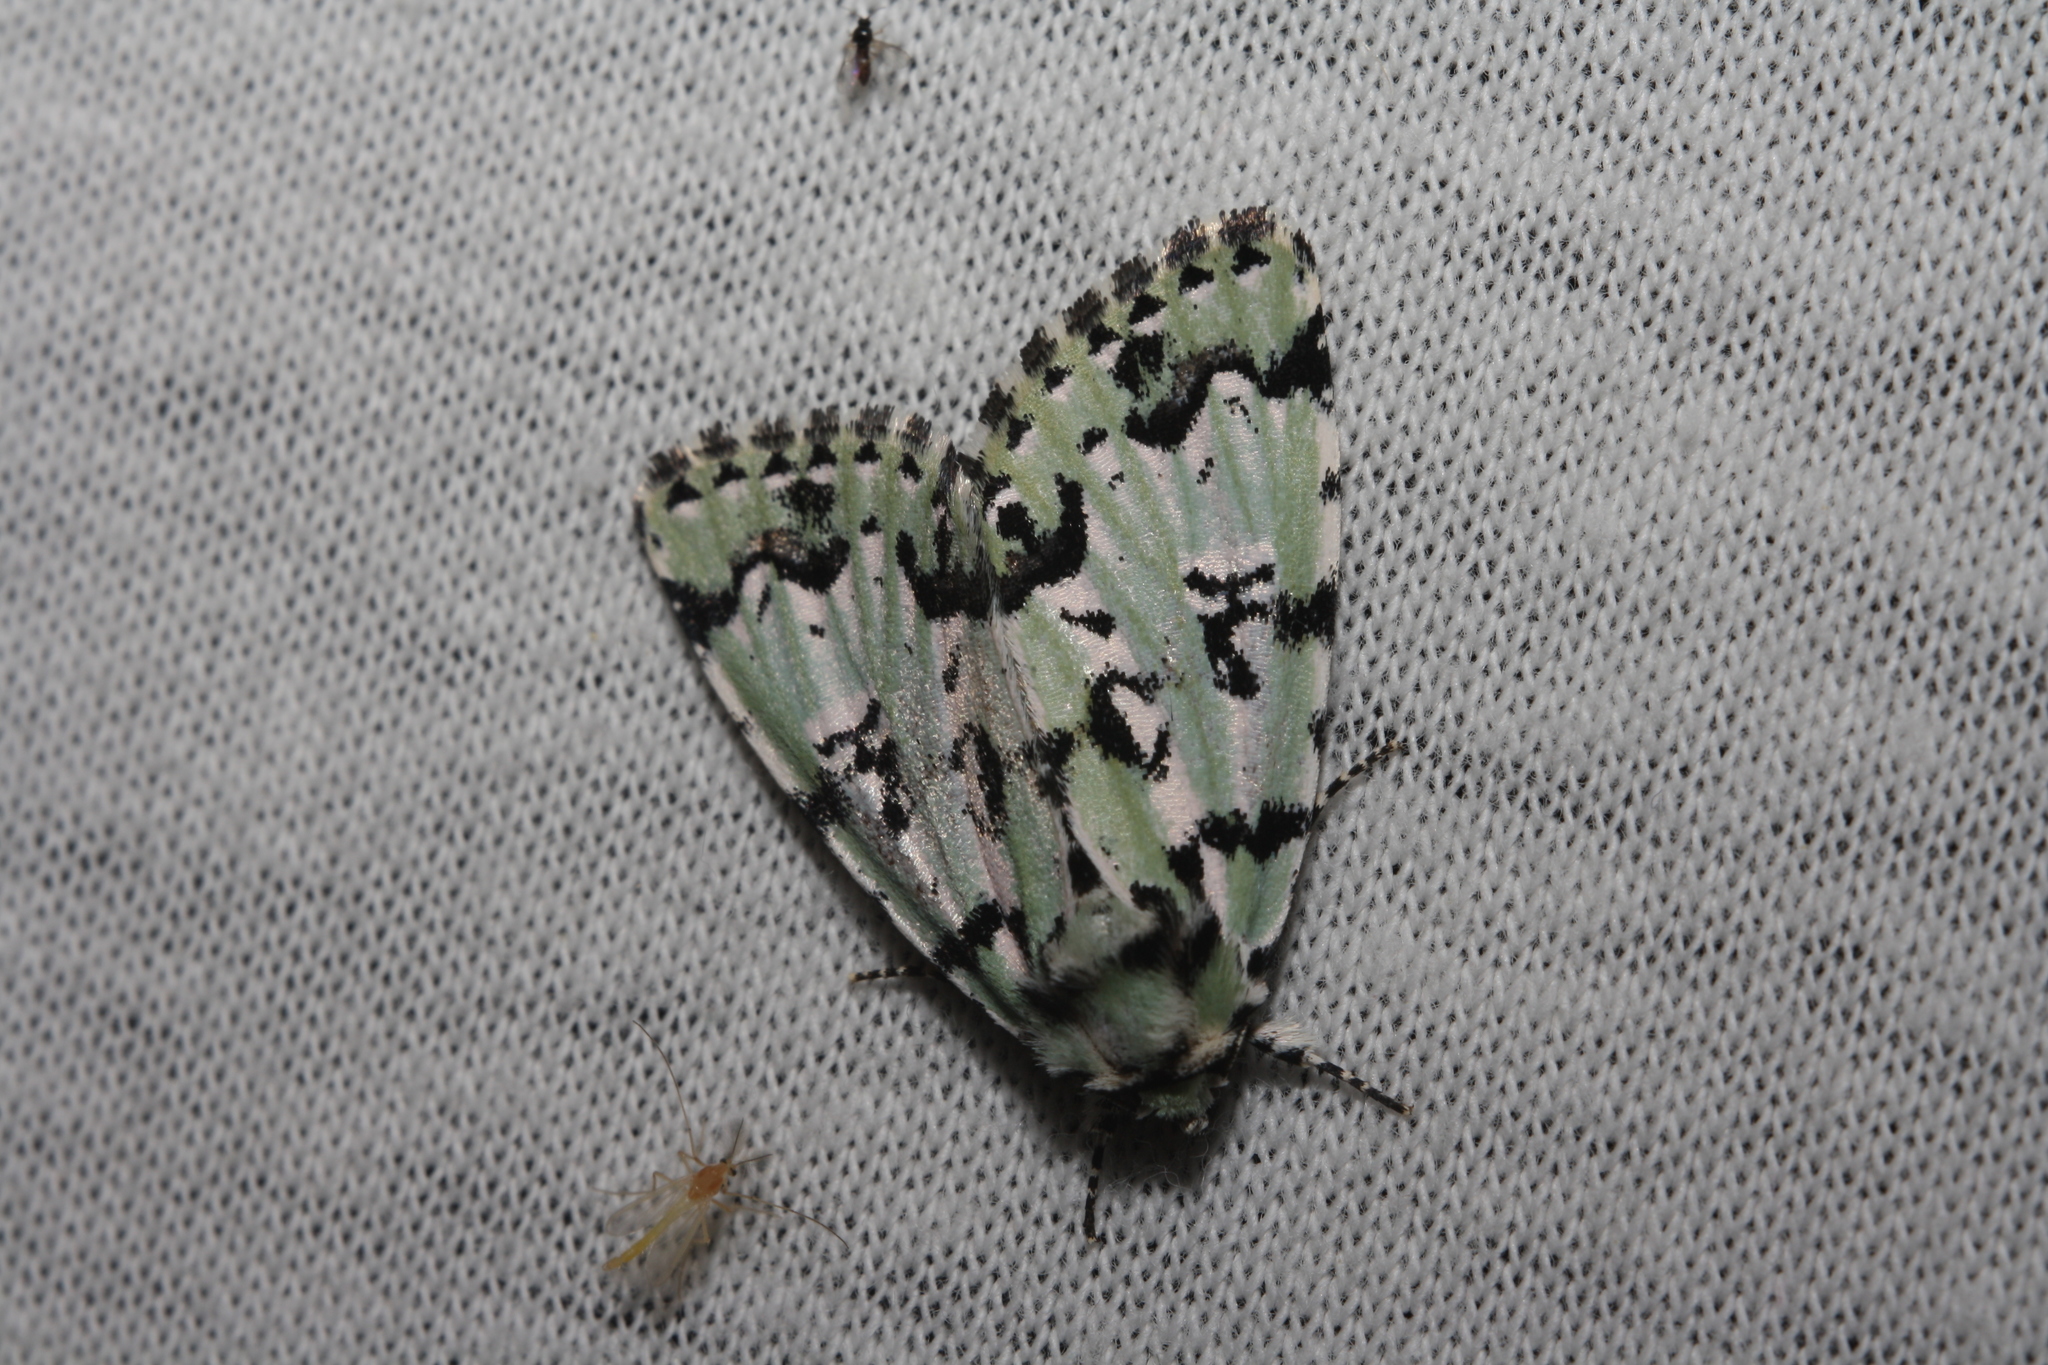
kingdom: Animalia
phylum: Arthropoda
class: Insecta
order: Lepidoptera
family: Noctuidae
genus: Moma
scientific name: Moma alpium
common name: Scarce merveille du jour
